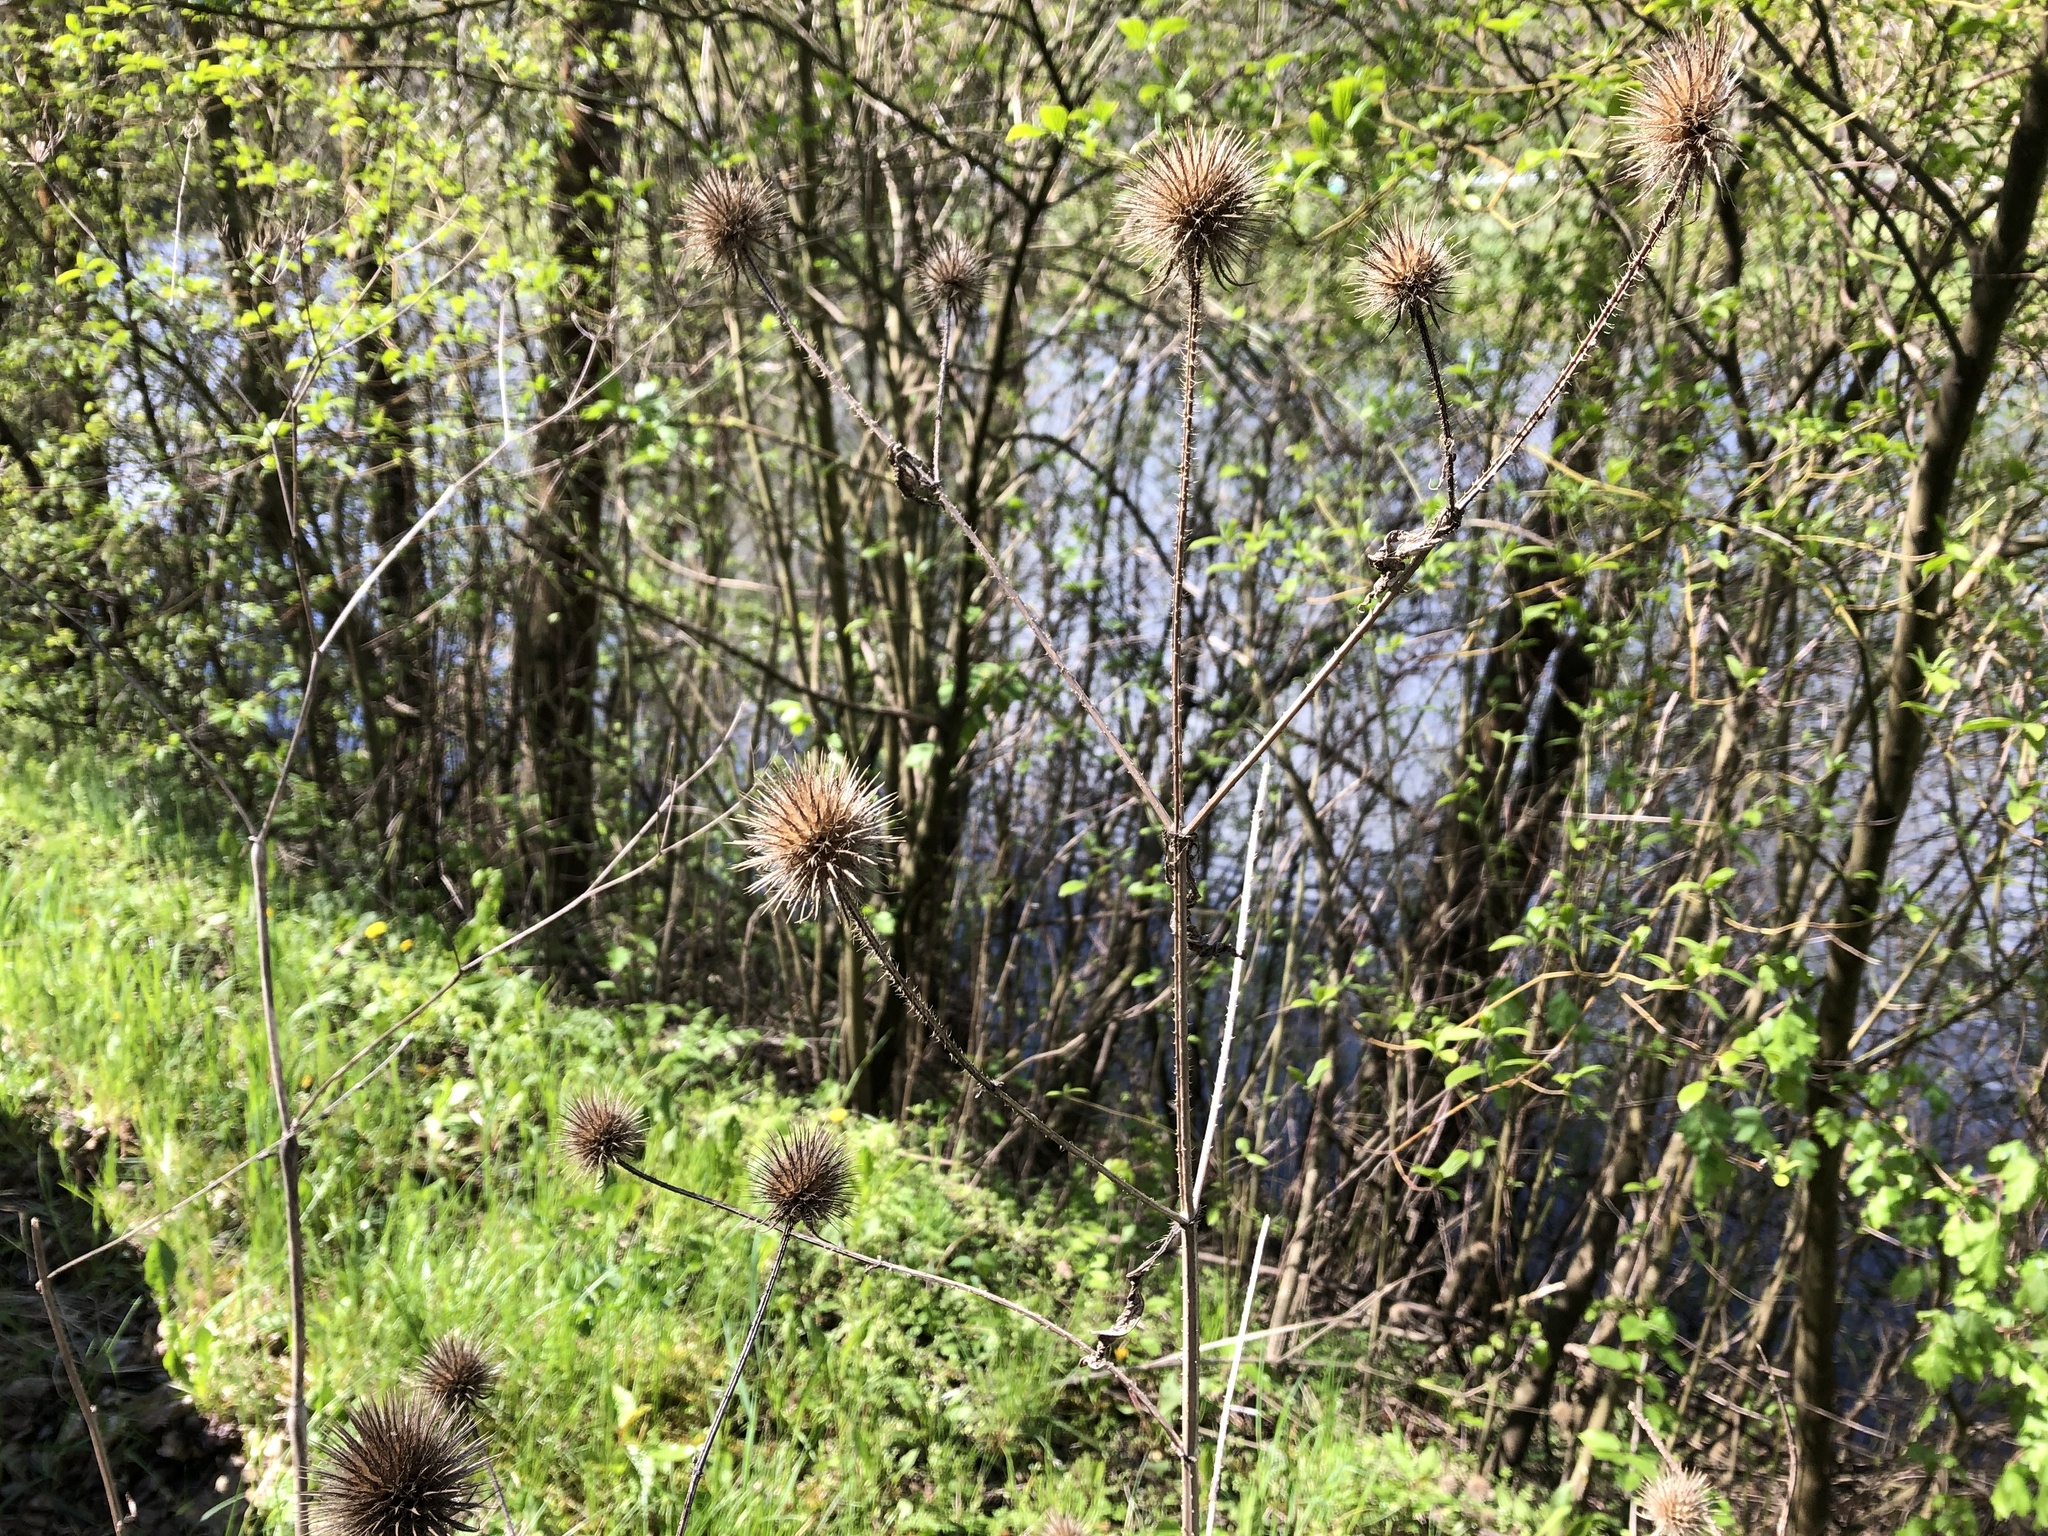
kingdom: Plantae
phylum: Tracheophyta
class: Magnoliopsida
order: Dipsacales
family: Caprifoliaceae
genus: Dipsacus
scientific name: Dipsacus strigosus
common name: Yellow-flowered teasel
